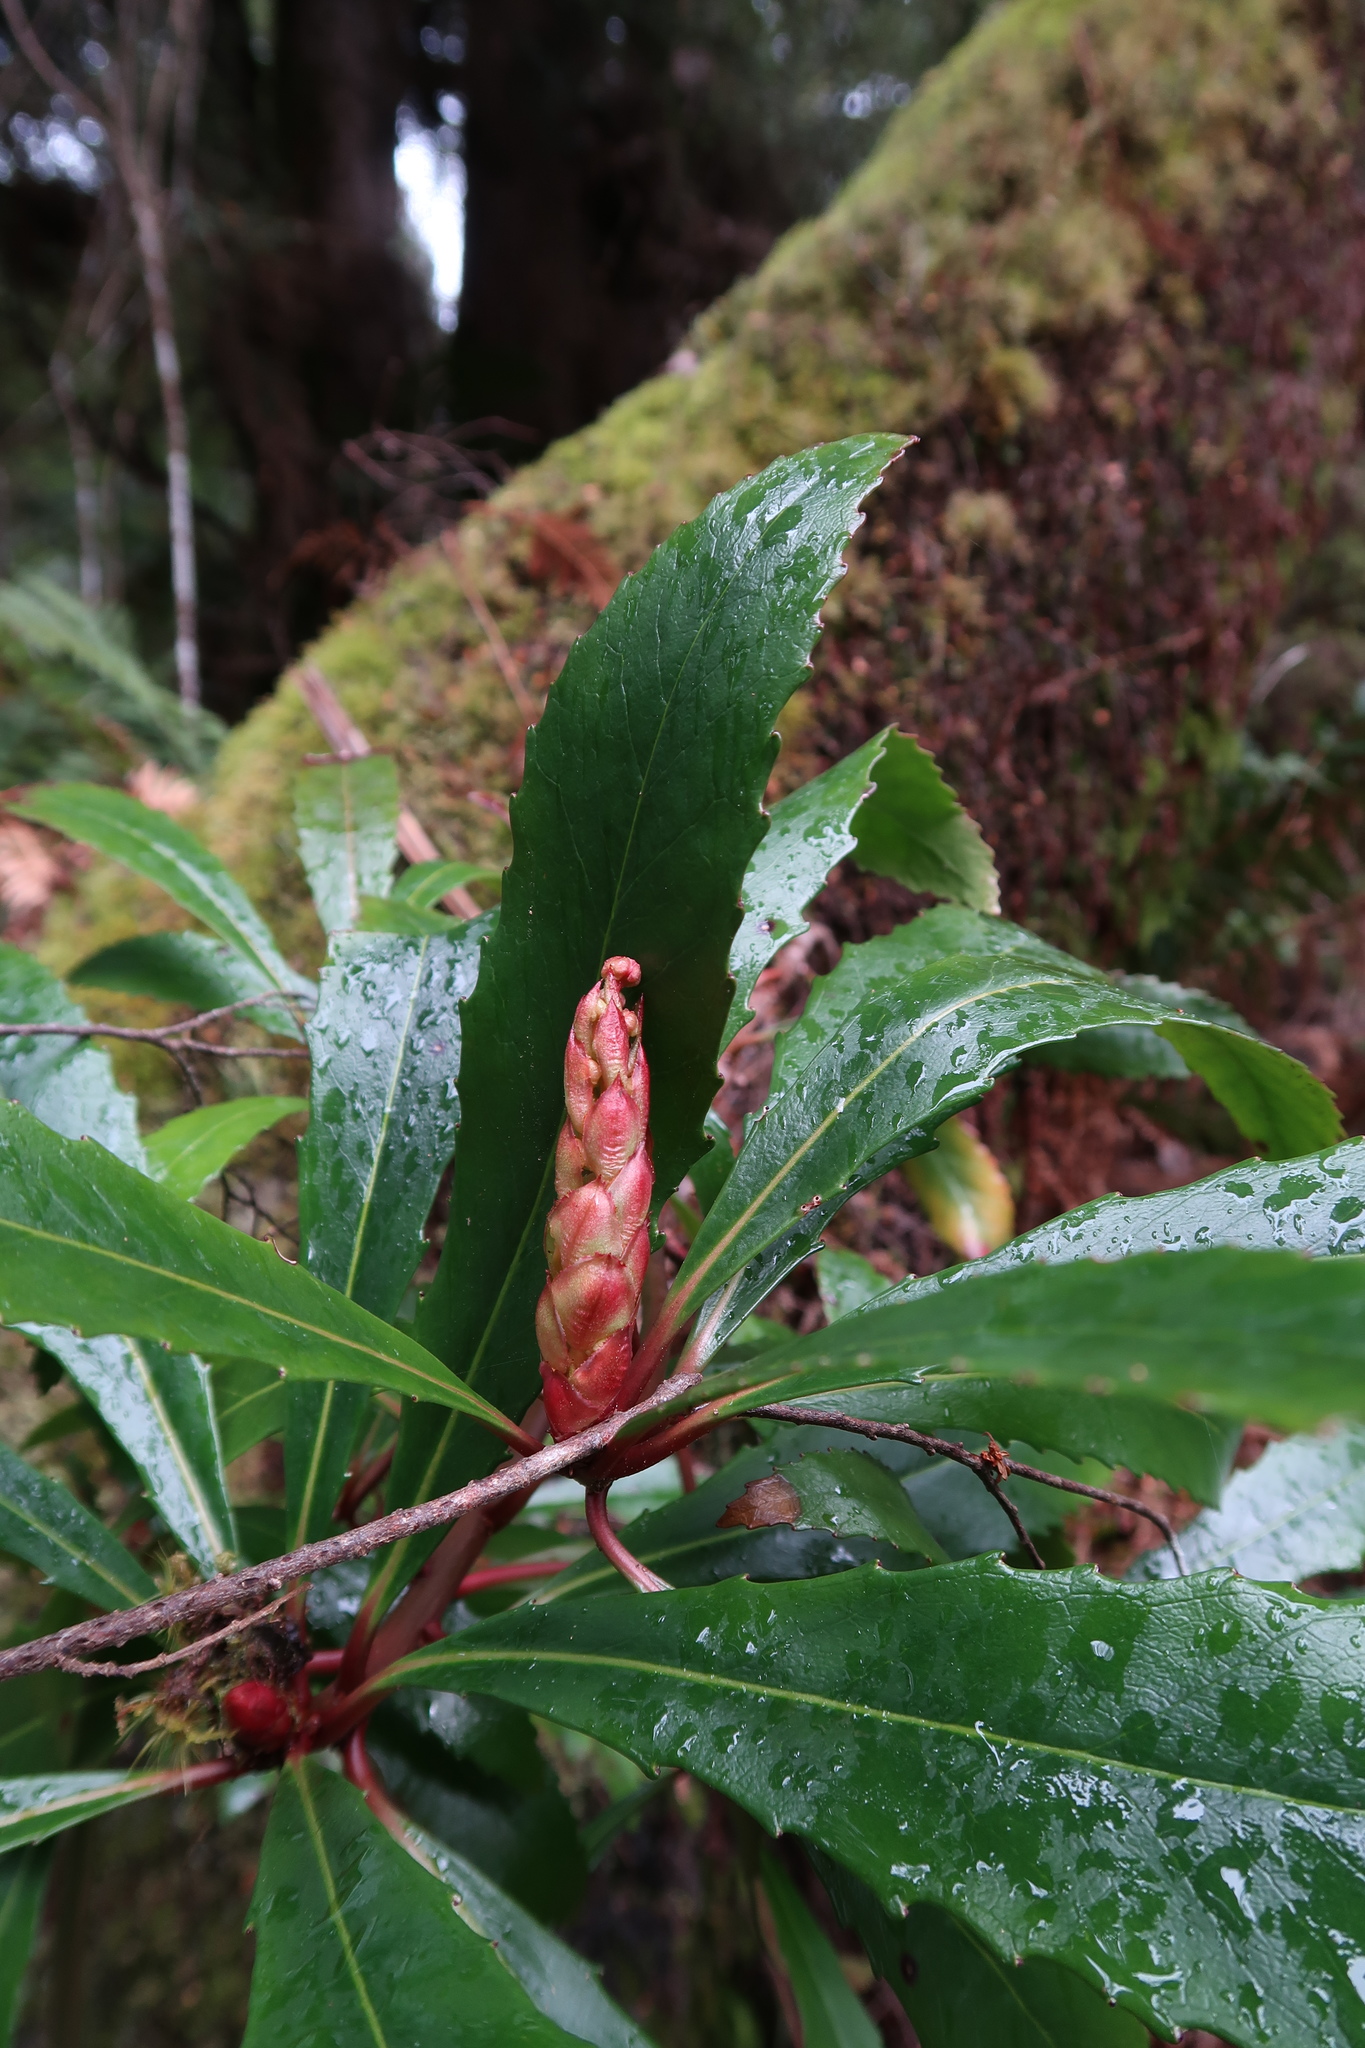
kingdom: Plantae
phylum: Tracheophyta
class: Magnoliopsida
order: Escalloniales
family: Escalloniaceae
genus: Anopterus
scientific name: Anopterus glandulosus
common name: Tasmanian-laurel
